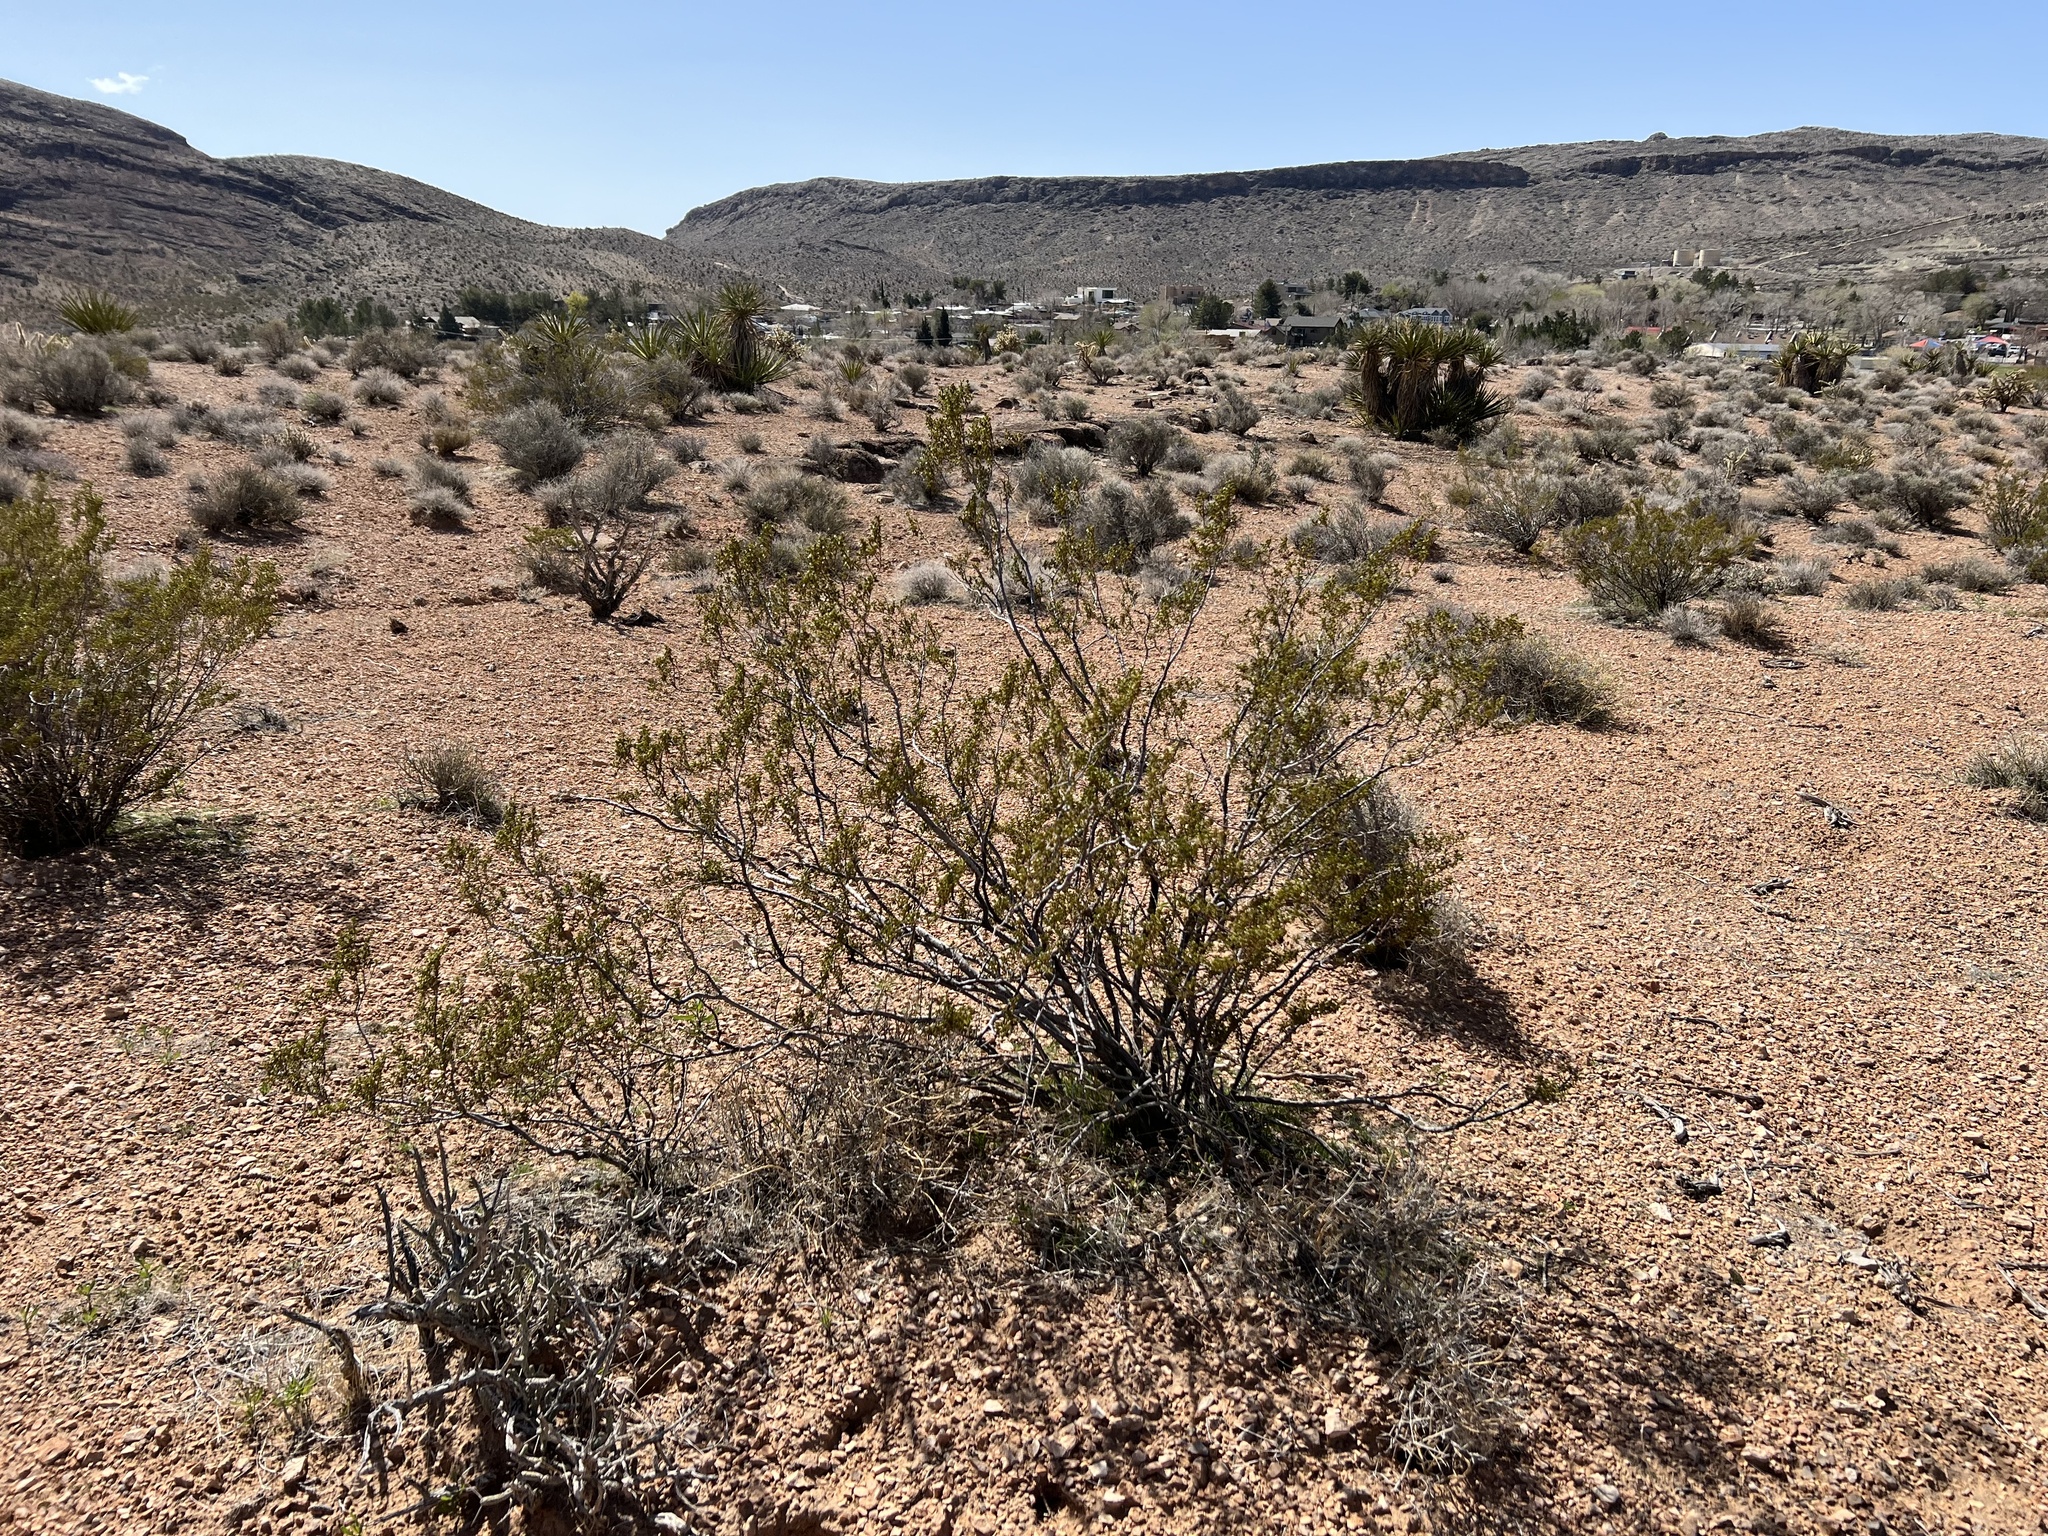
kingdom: Plantae
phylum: Tracheophyta
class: Magnoliopsida
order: Zygophyllales
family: Zygophyllaceae
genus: Larrea
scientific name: Larrea tridentata
